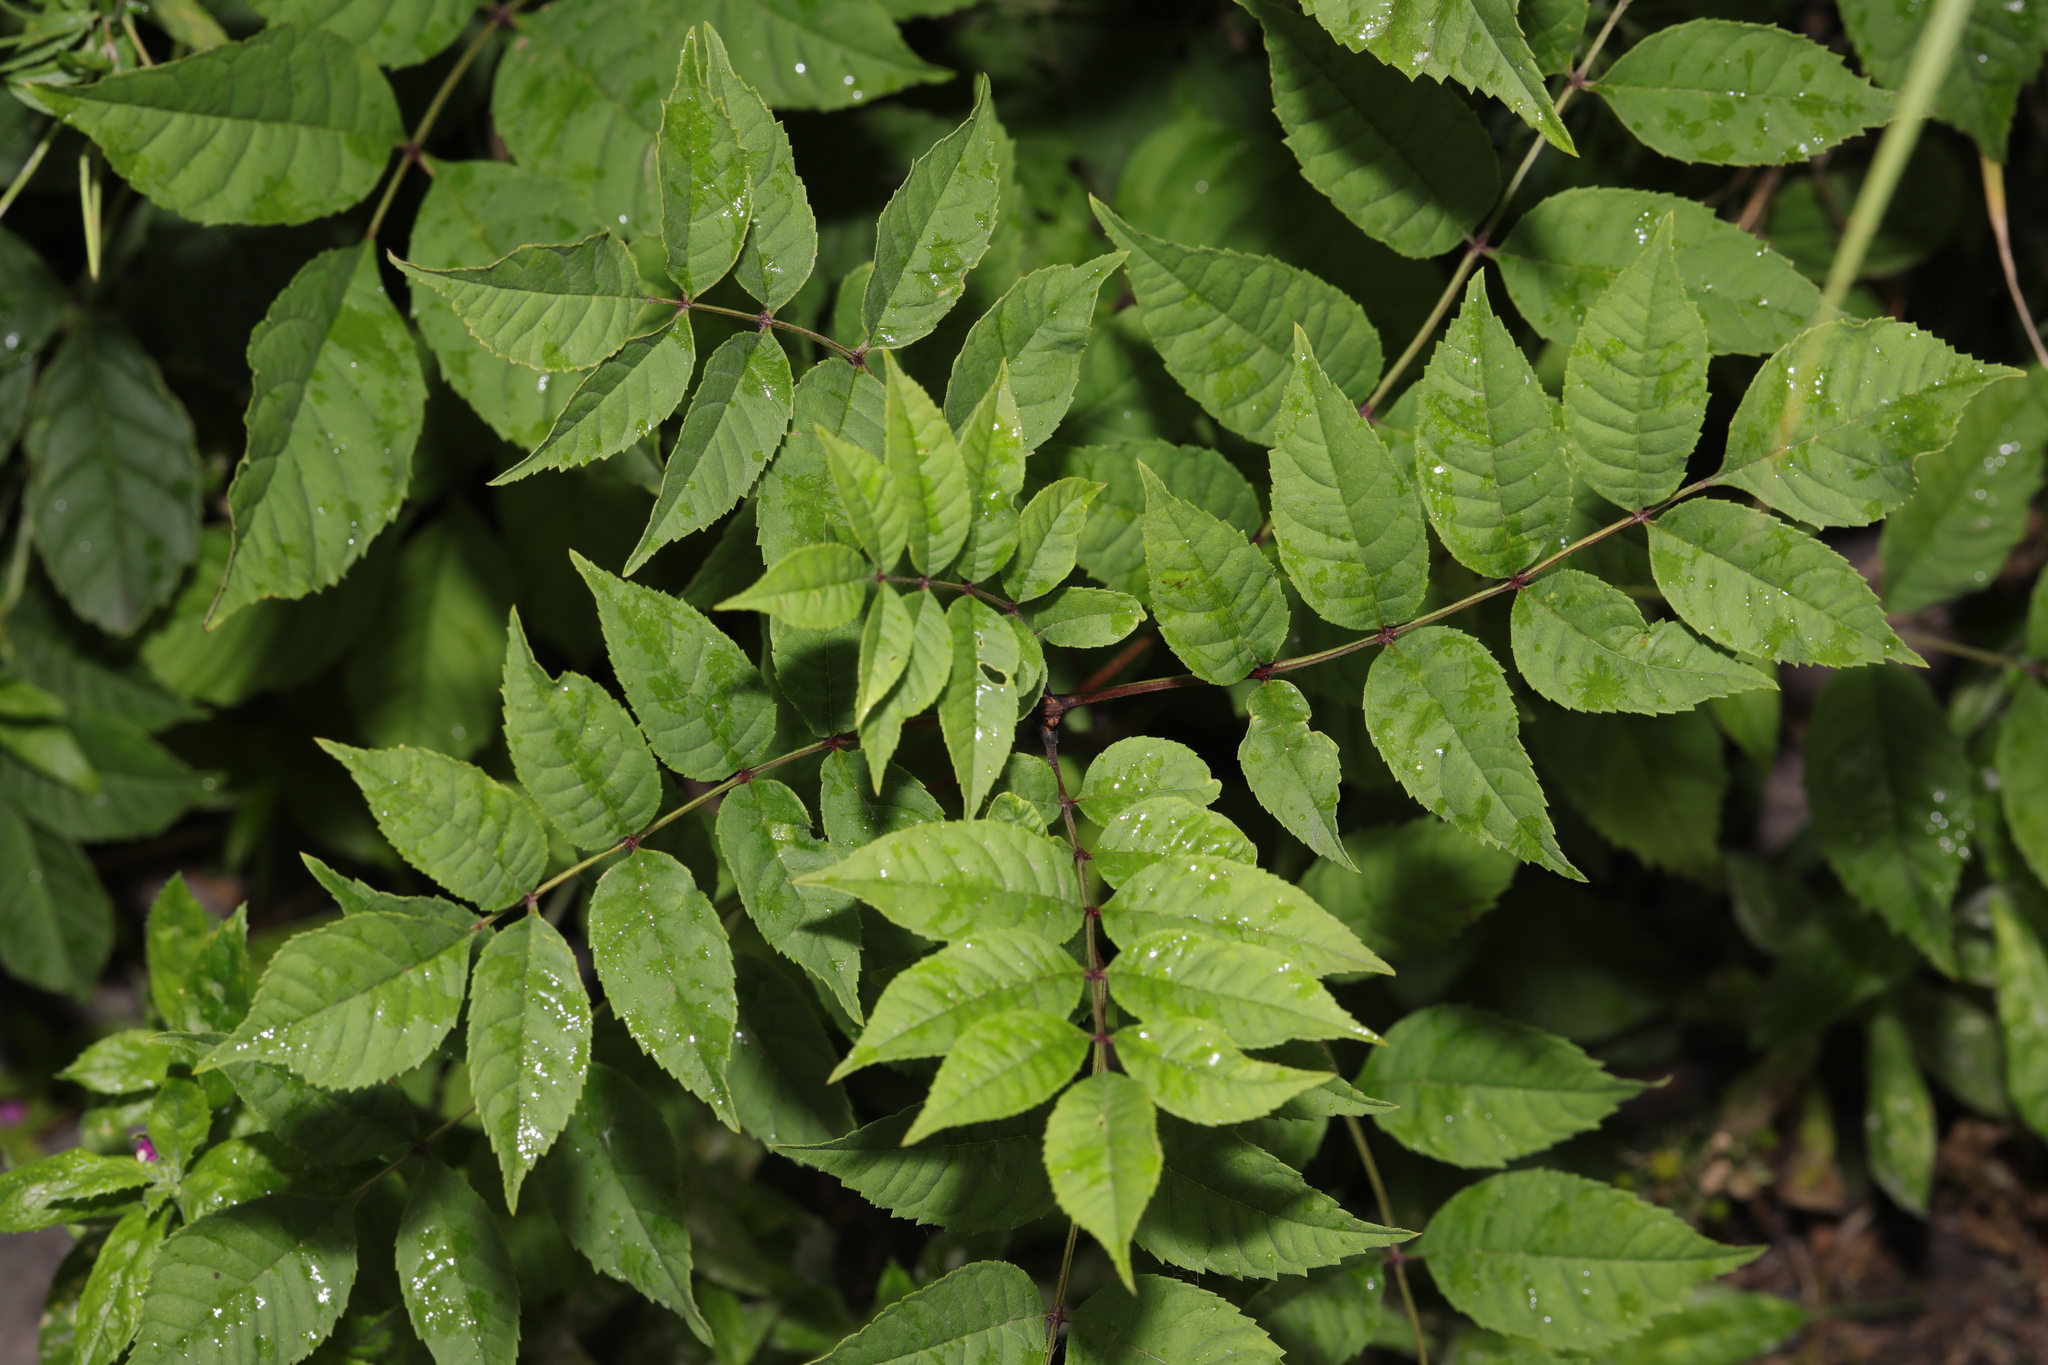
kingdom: Plantae
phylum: Tracheophyta
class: Magnoliopsida
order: Lamiales
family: Oleaceae
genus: Fraxinus
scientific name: Fraxinus excelsior
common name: European ash
